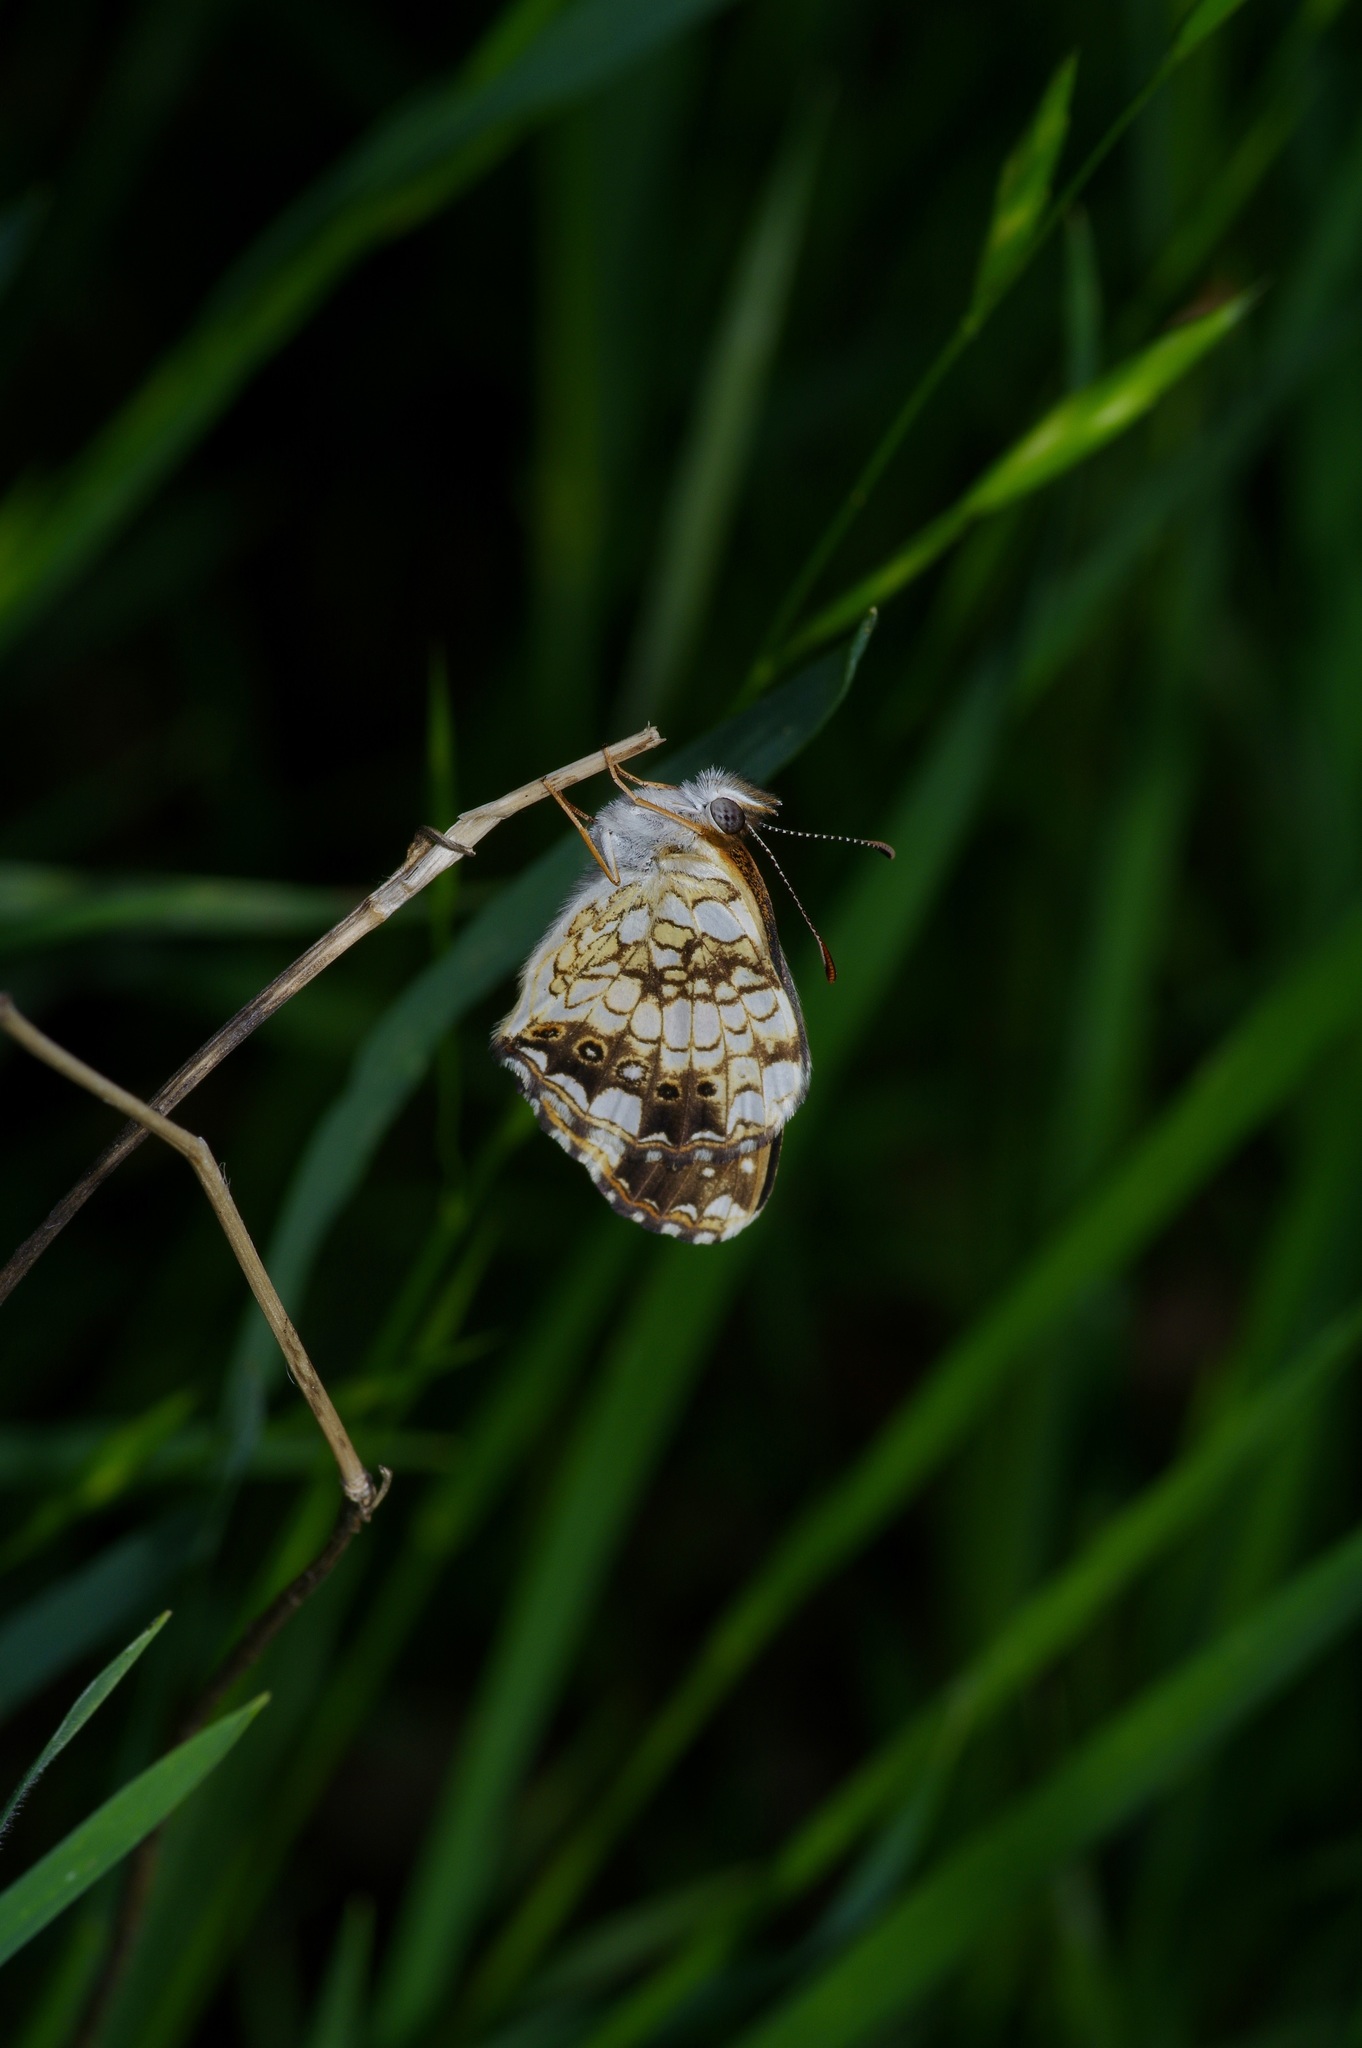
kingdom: Animalia
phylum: Arthropoda
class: Insecta
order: Lepidoptera
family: Nymphalidae
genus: Chlosyne
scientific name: Chlosyne nycteis
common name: Silvery checkerspot
